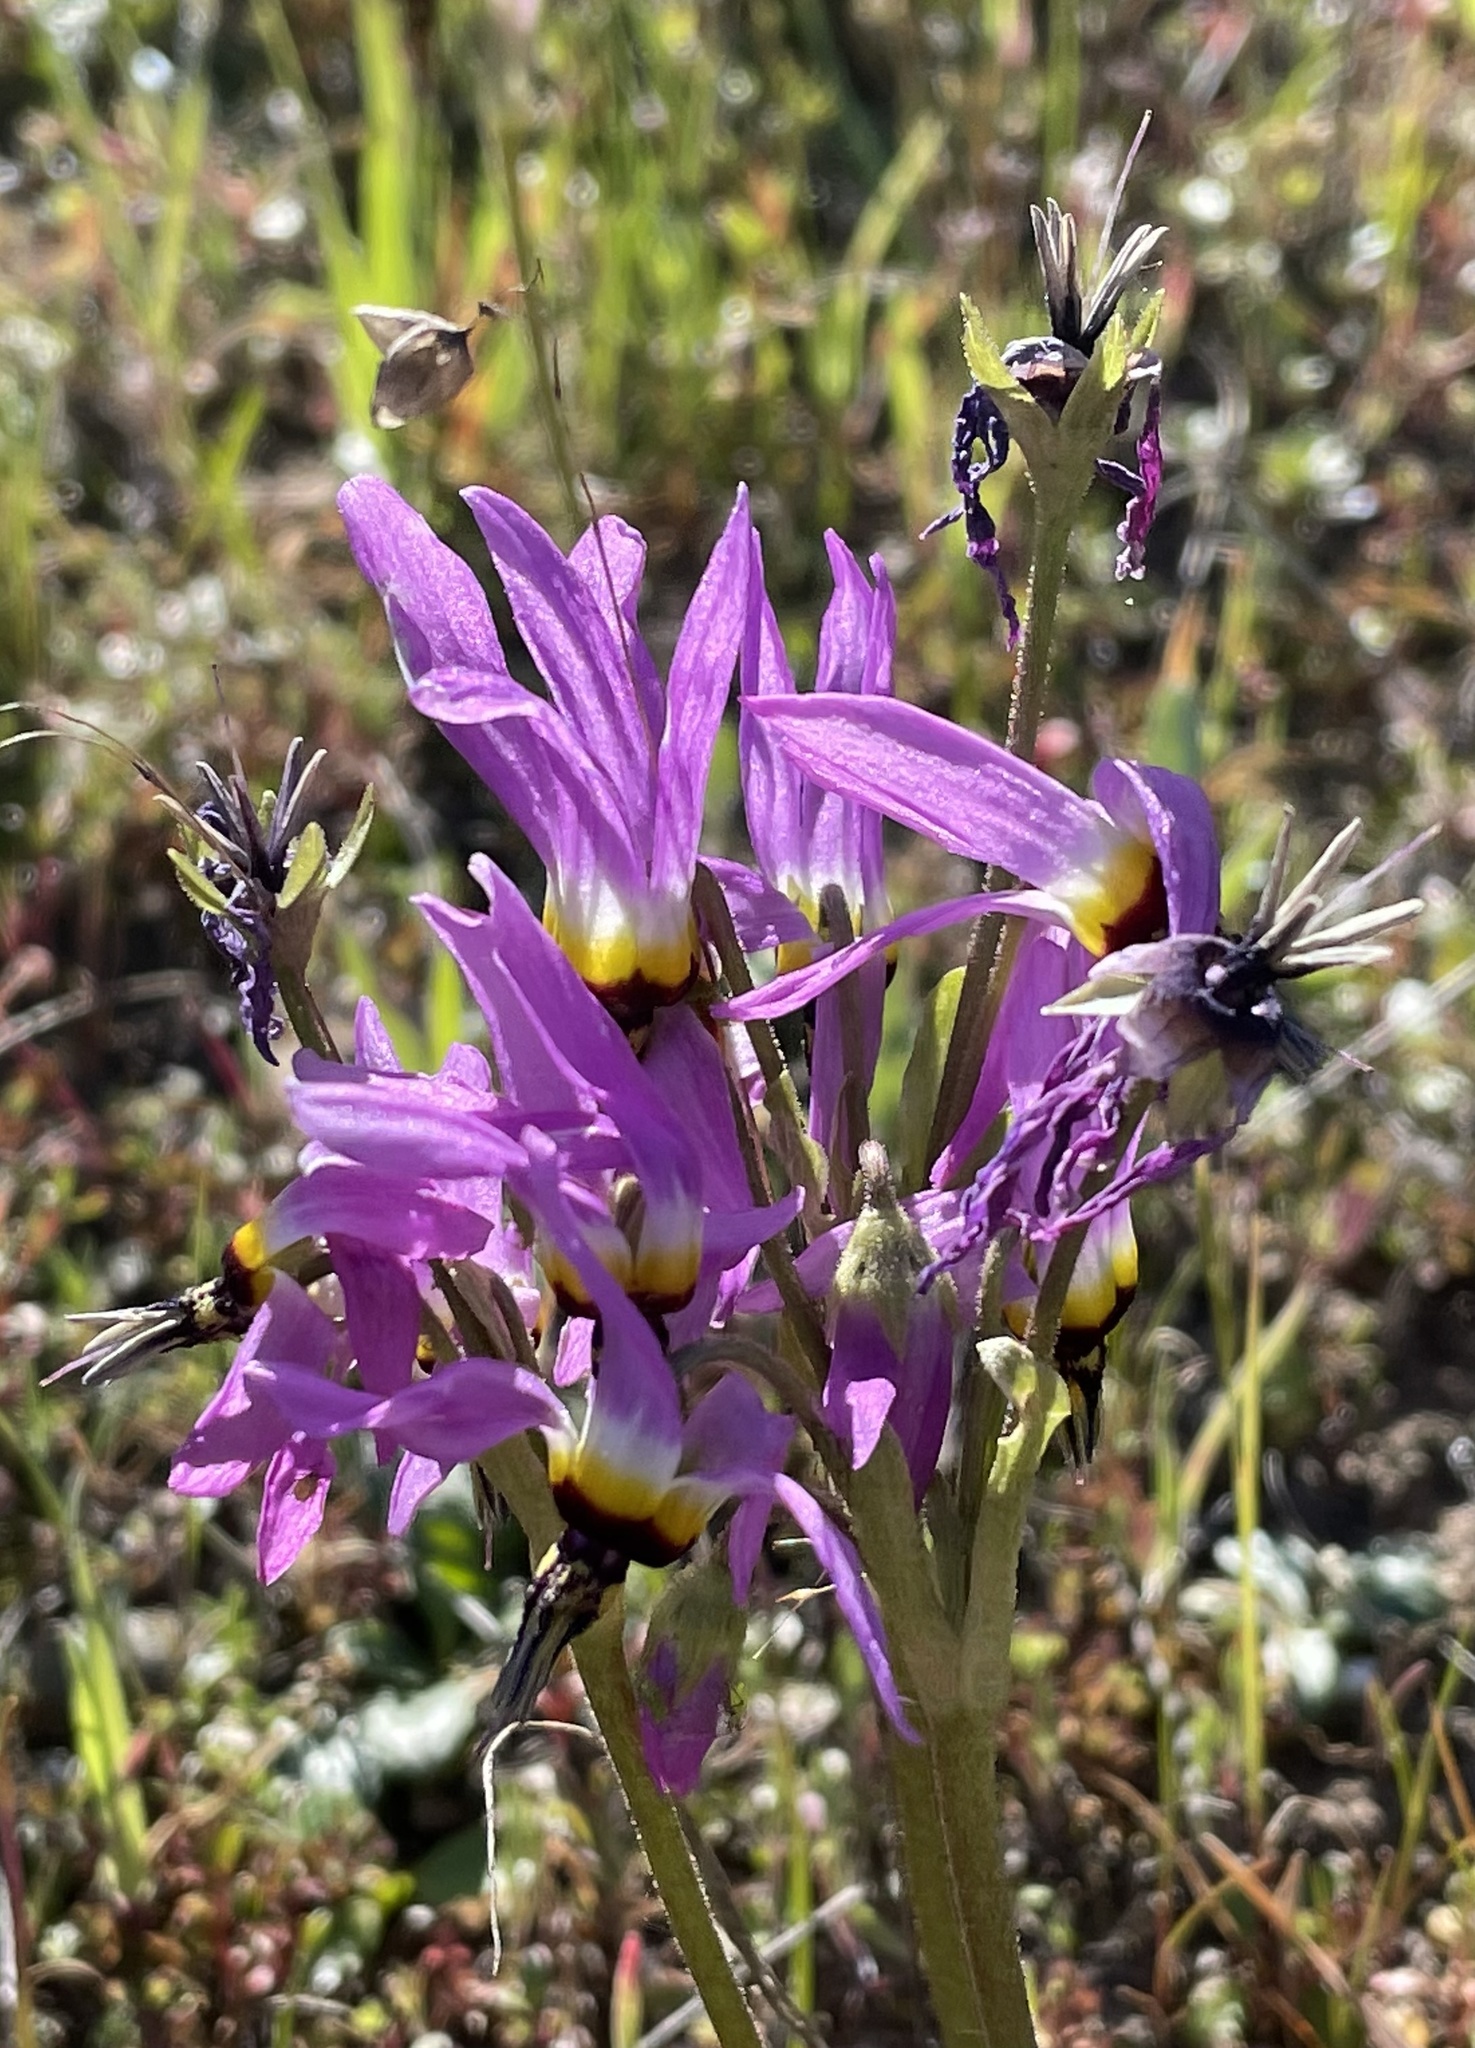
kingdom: Plantae
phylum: Tracheophyta
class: Magnoliopsida
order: Ericales
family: Primulaceae
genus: Dodecatheon
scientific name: Dodecatheon clevelandii
